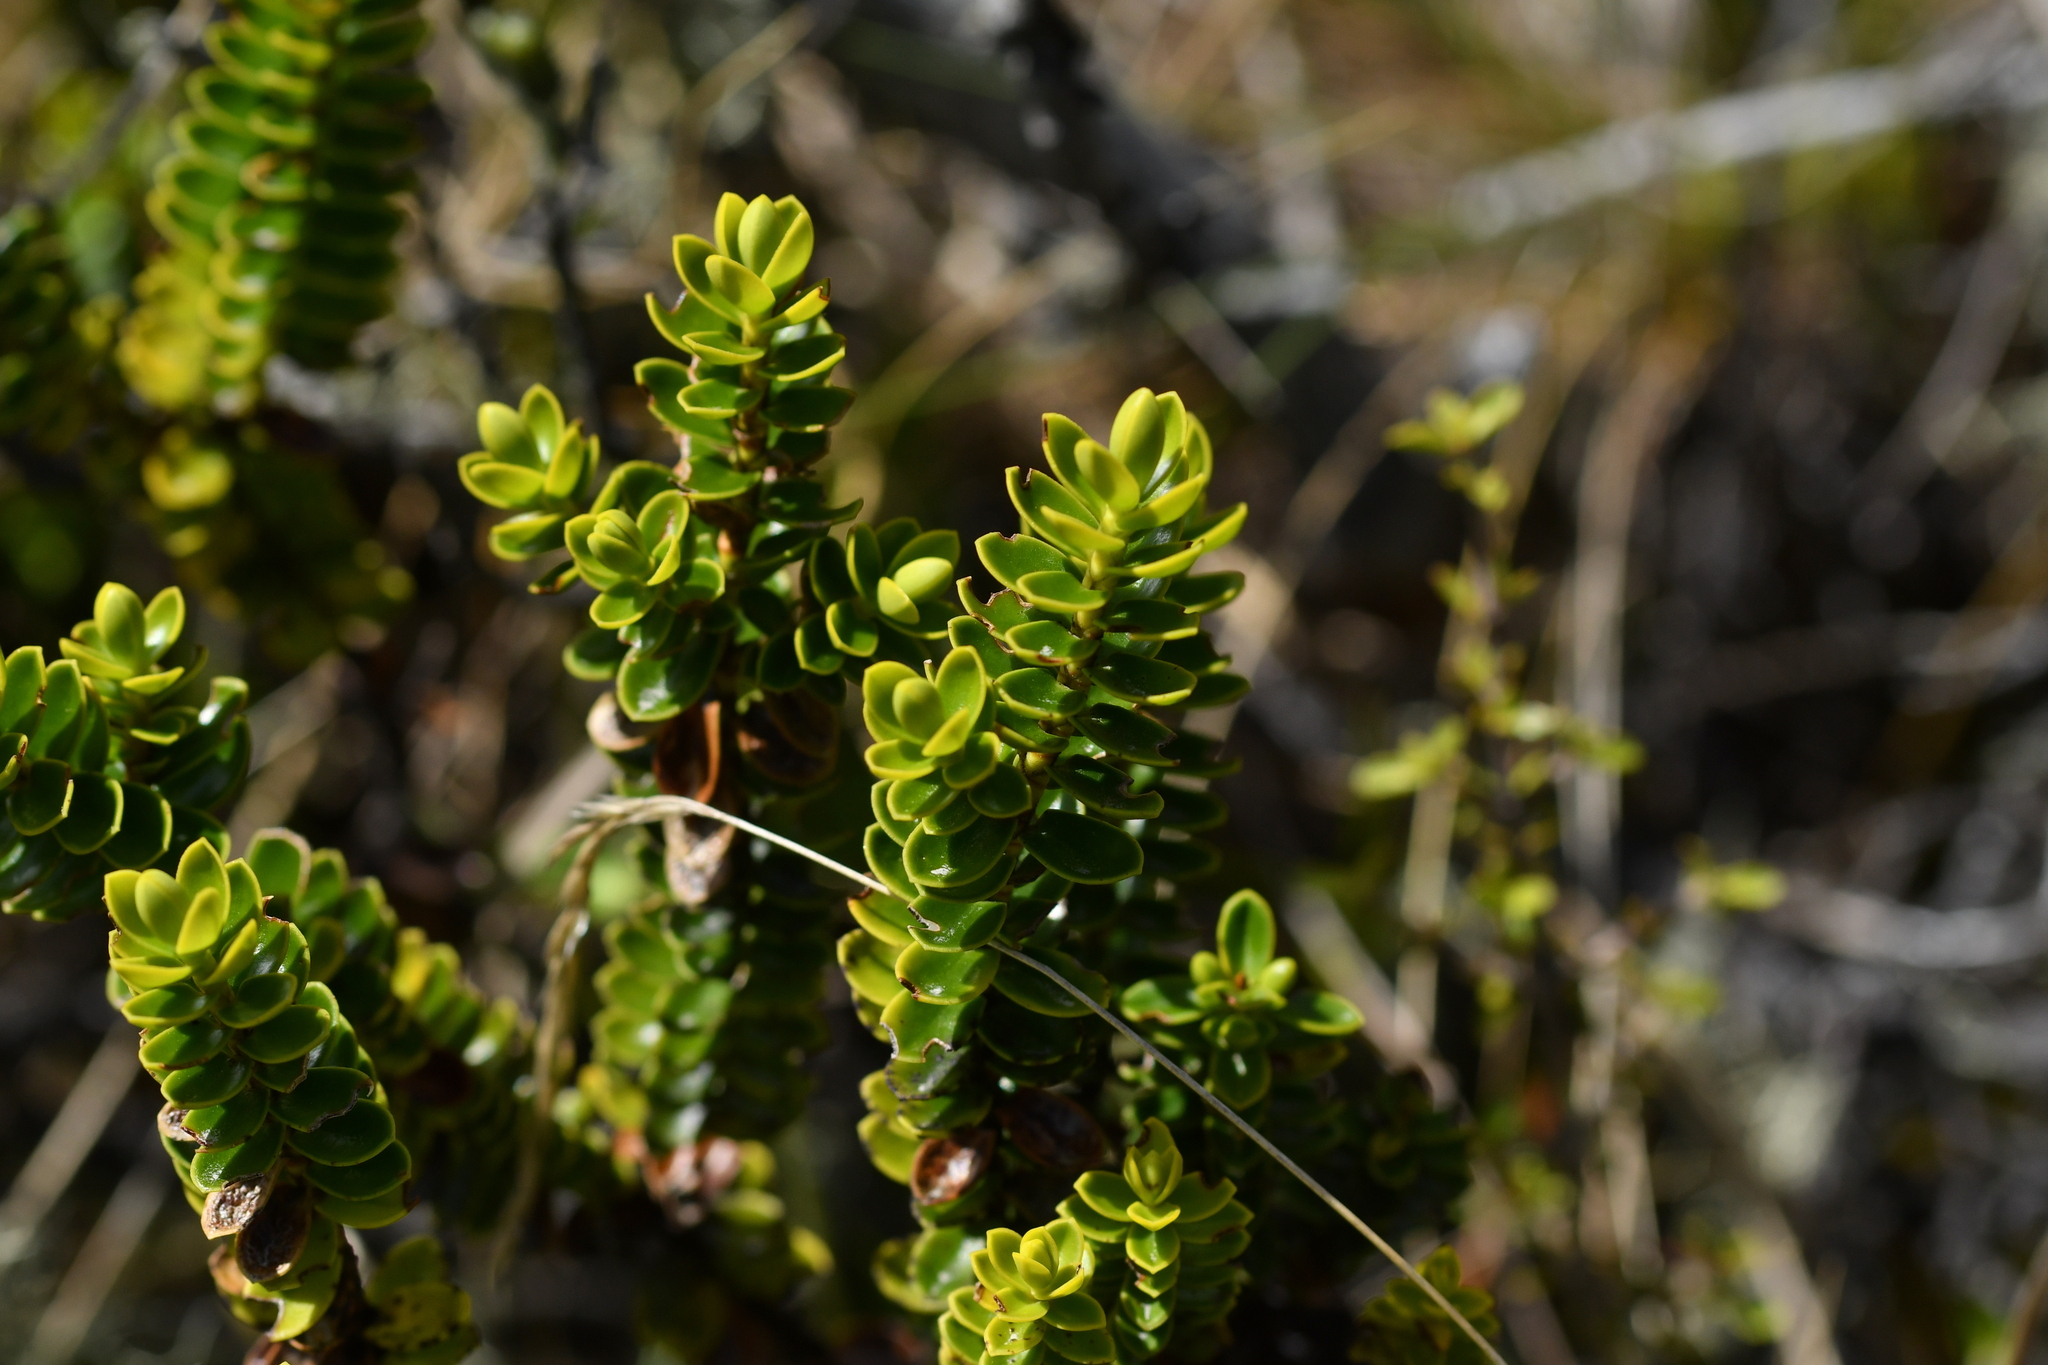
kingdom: Plantae
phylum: Tracheophyta
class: Magnoliopsida
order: Lamiales
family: Plantaginaceae
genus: Veronica
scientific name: Veronica odora
